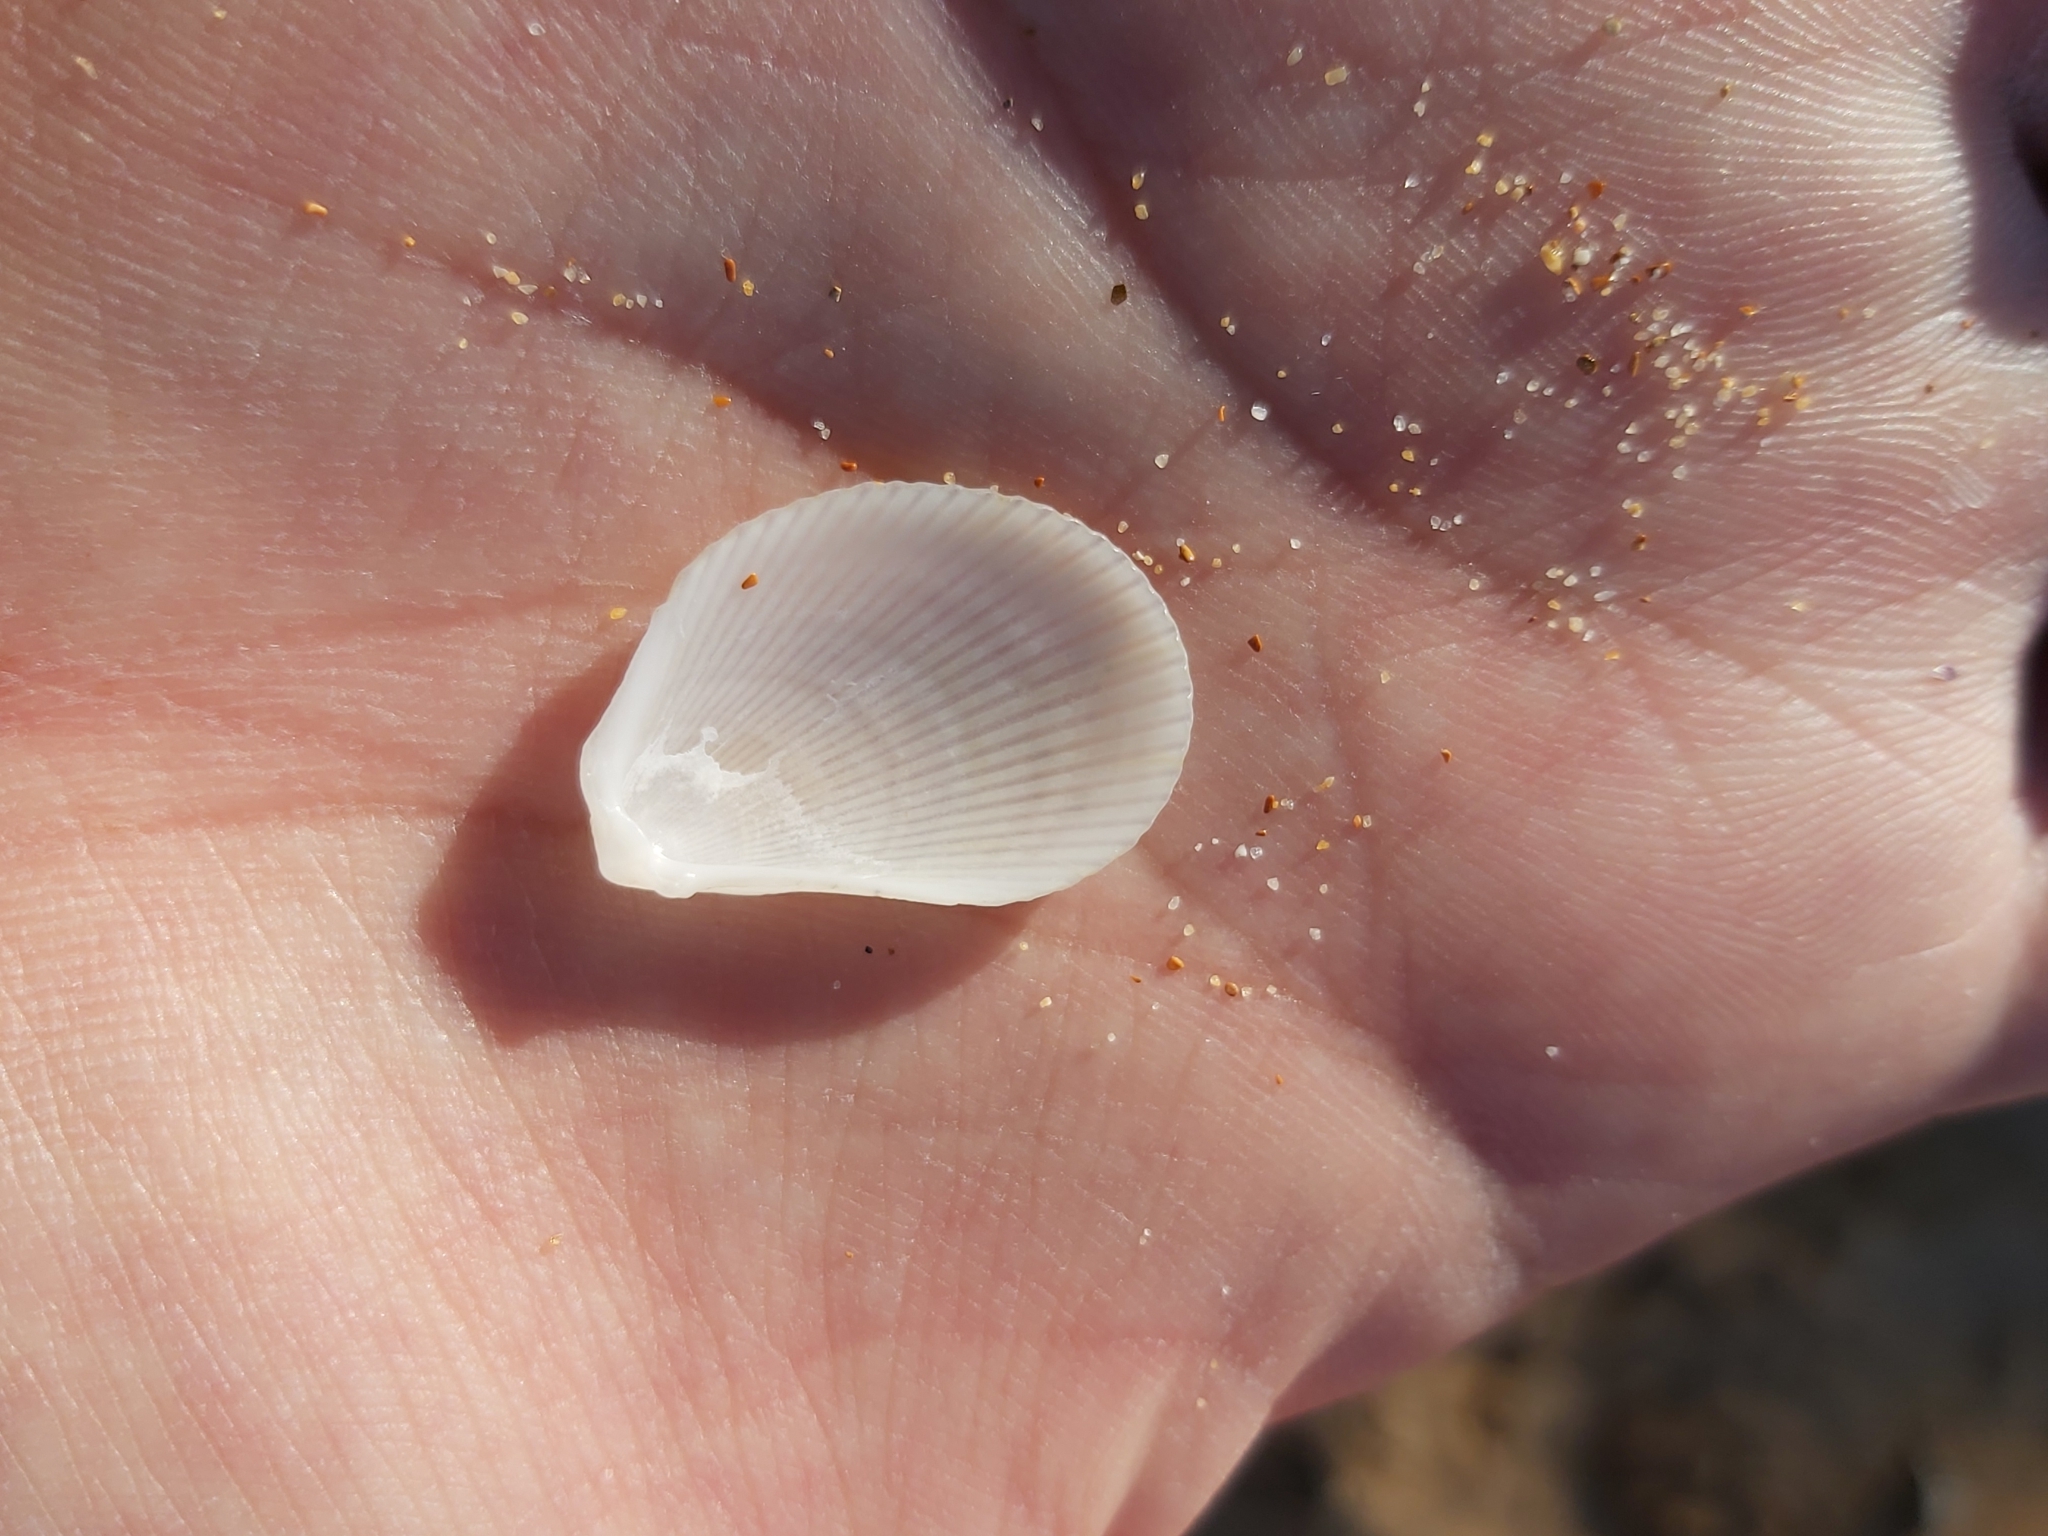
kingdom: Animalia
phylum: Mollusca
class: Bivalvia
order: Limida
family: Limidae
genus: Lima
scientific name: Lima nimbifer
